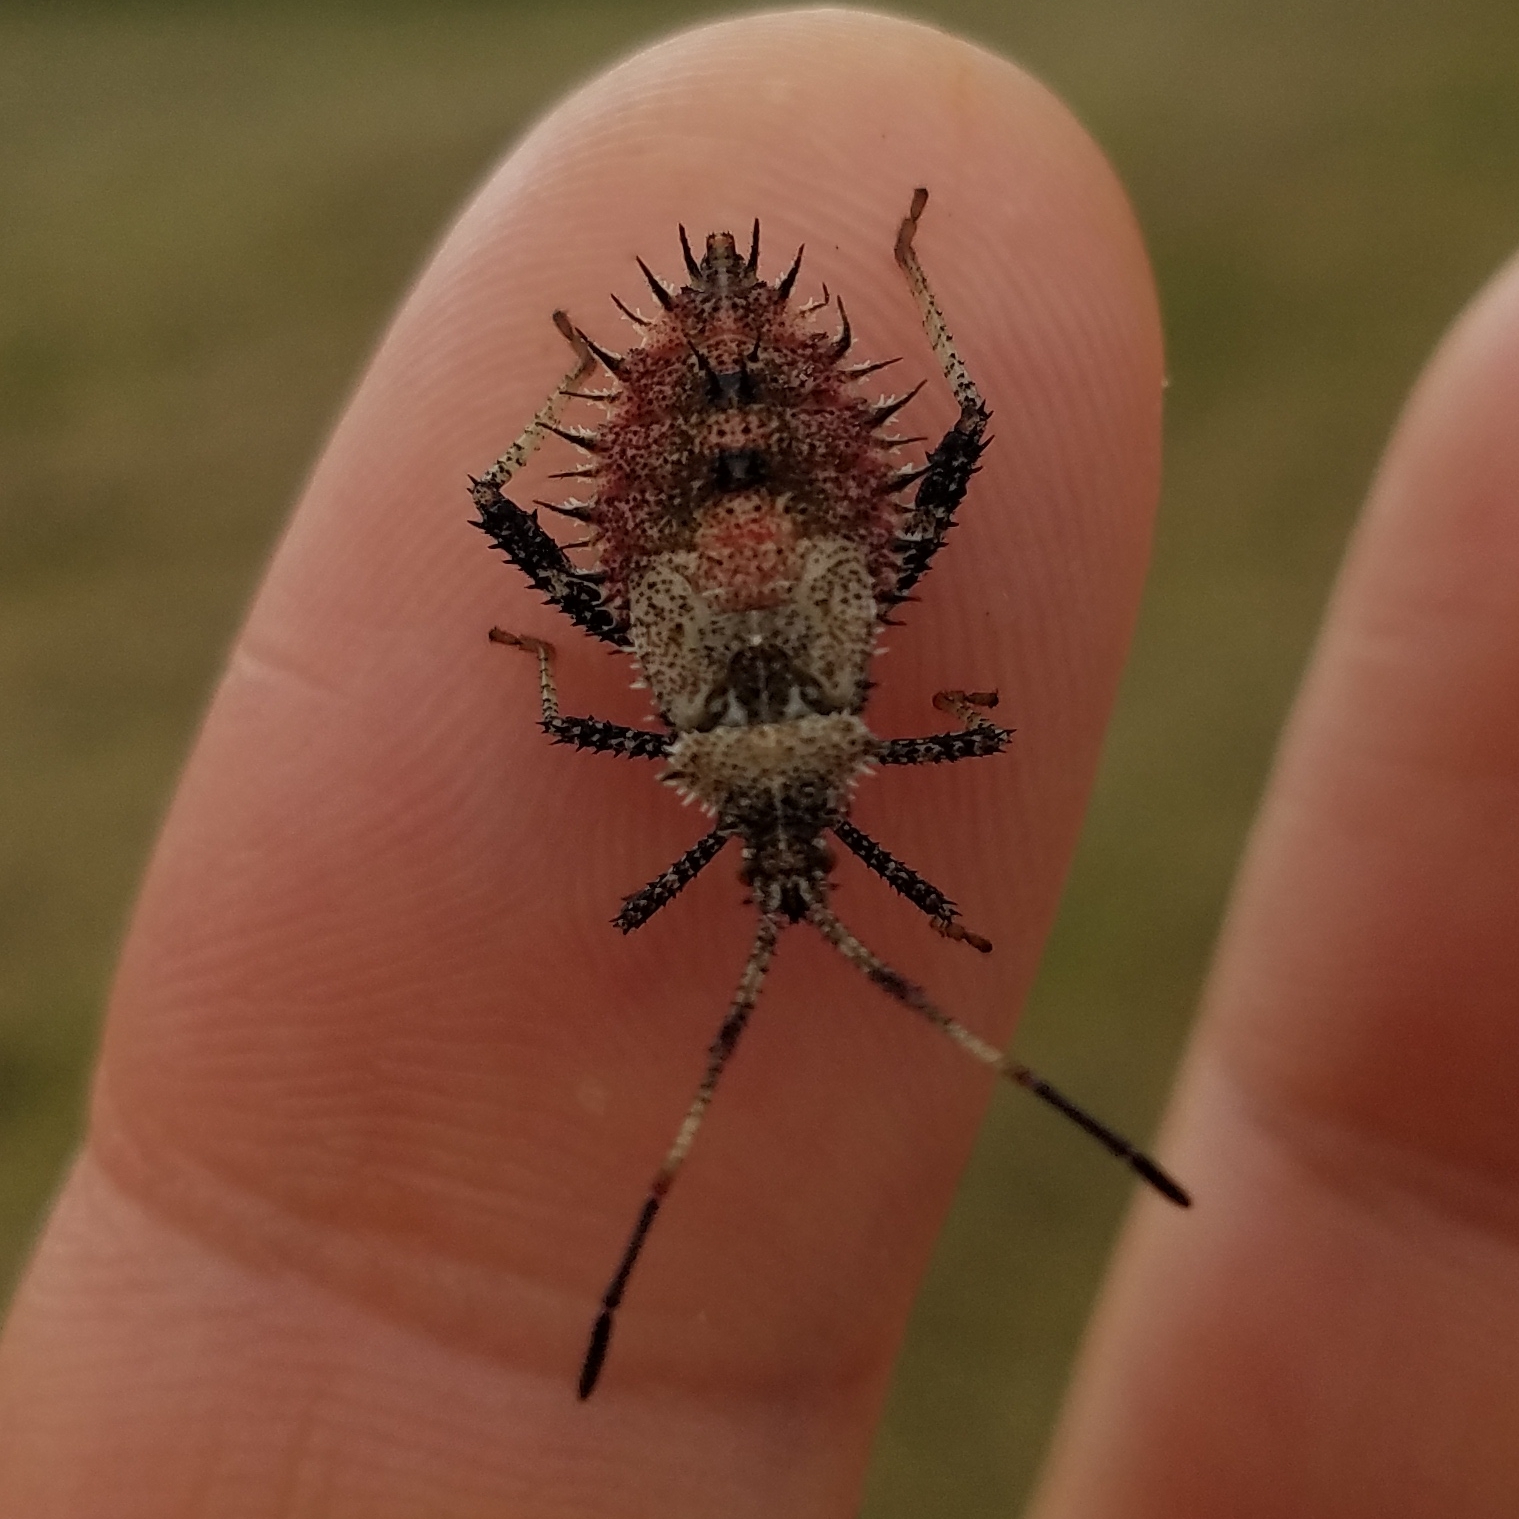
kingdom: Animalia
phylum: Arthropoda
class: Insecta
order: Hemiptera
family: Coreidae
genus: Euthochtha
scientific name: Euthochtha galeator
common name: Helmeted squash bug
